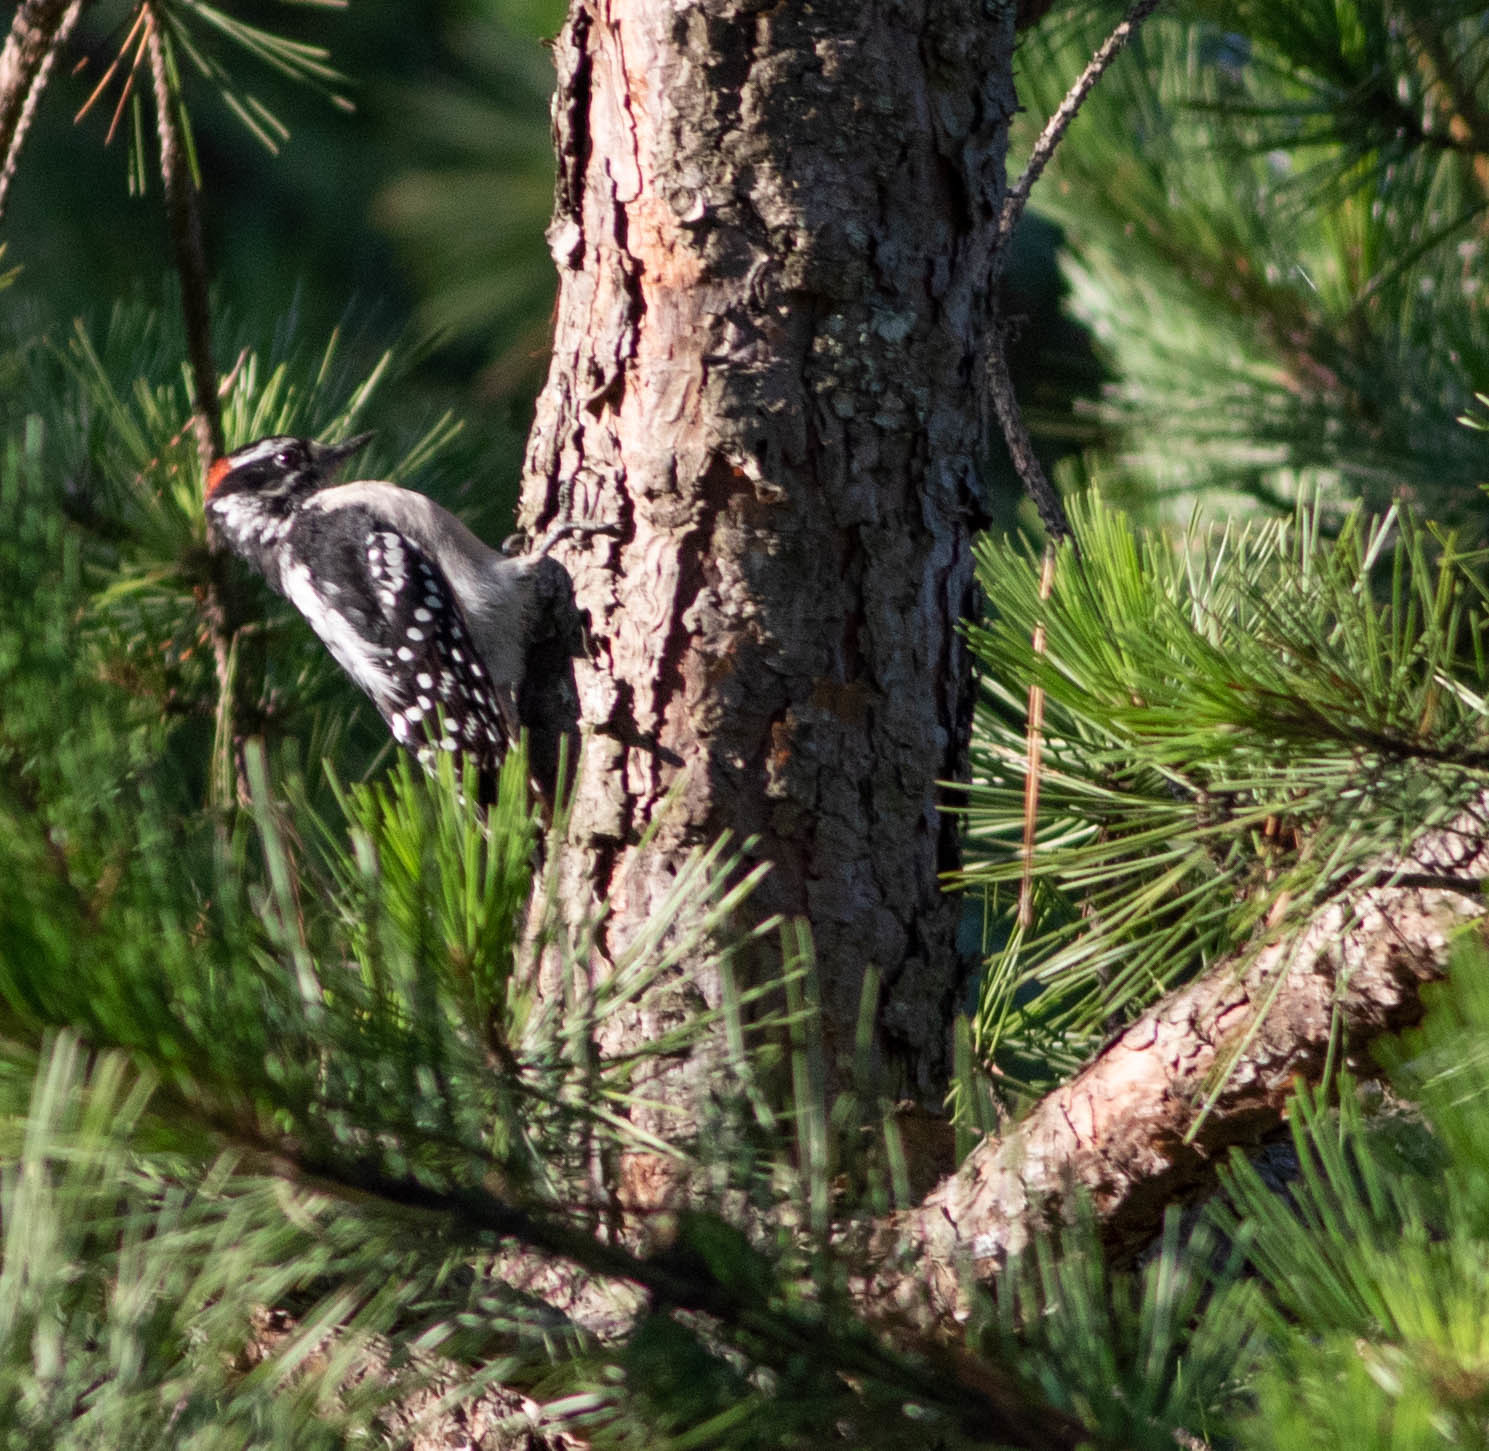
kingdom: Animalia
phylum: Chordata
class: Aves
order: Piciformes
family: Picidae
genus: Leuconotopicus
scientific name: Leuconotopicus villosus
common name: Hairy woodpecker
